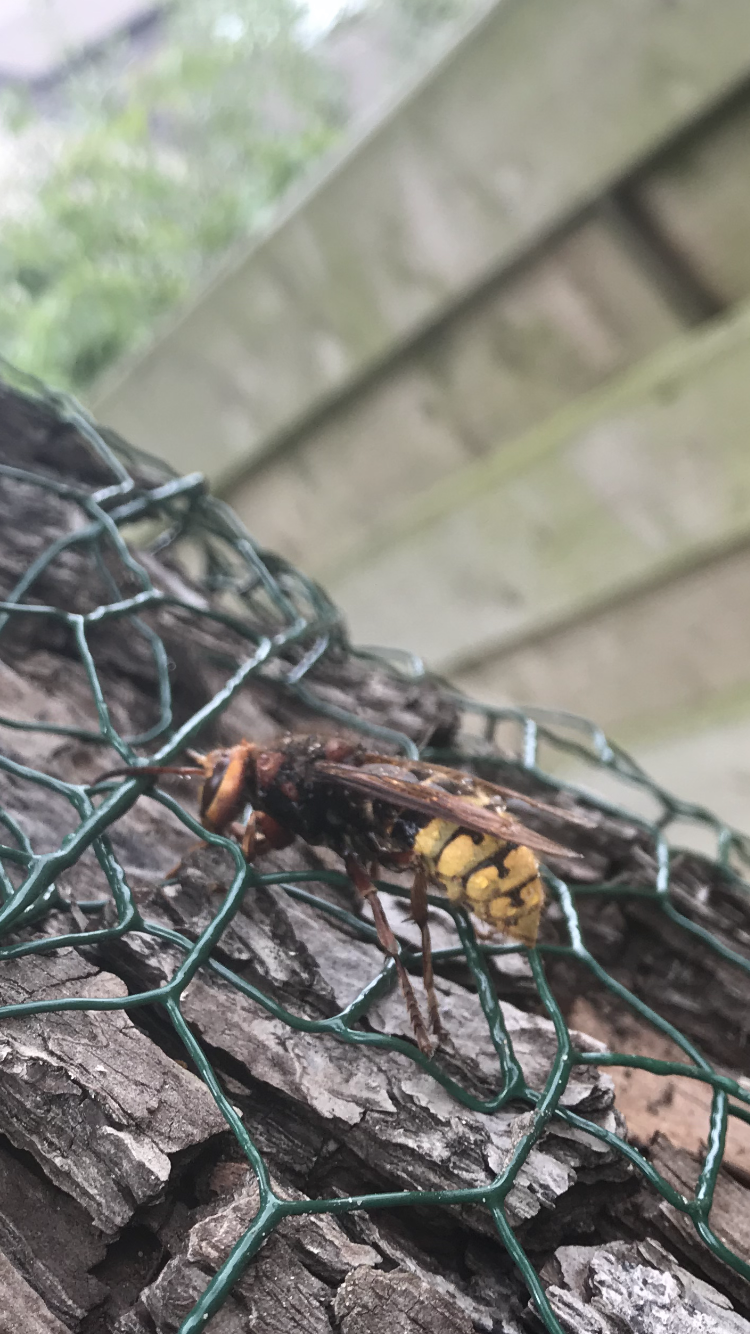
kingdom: Animalia
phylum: Arthropoda
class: Insecta
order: Hymenoptera
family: Vespidae
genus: Vespa
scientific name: Vespa crabro
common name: Hornet
